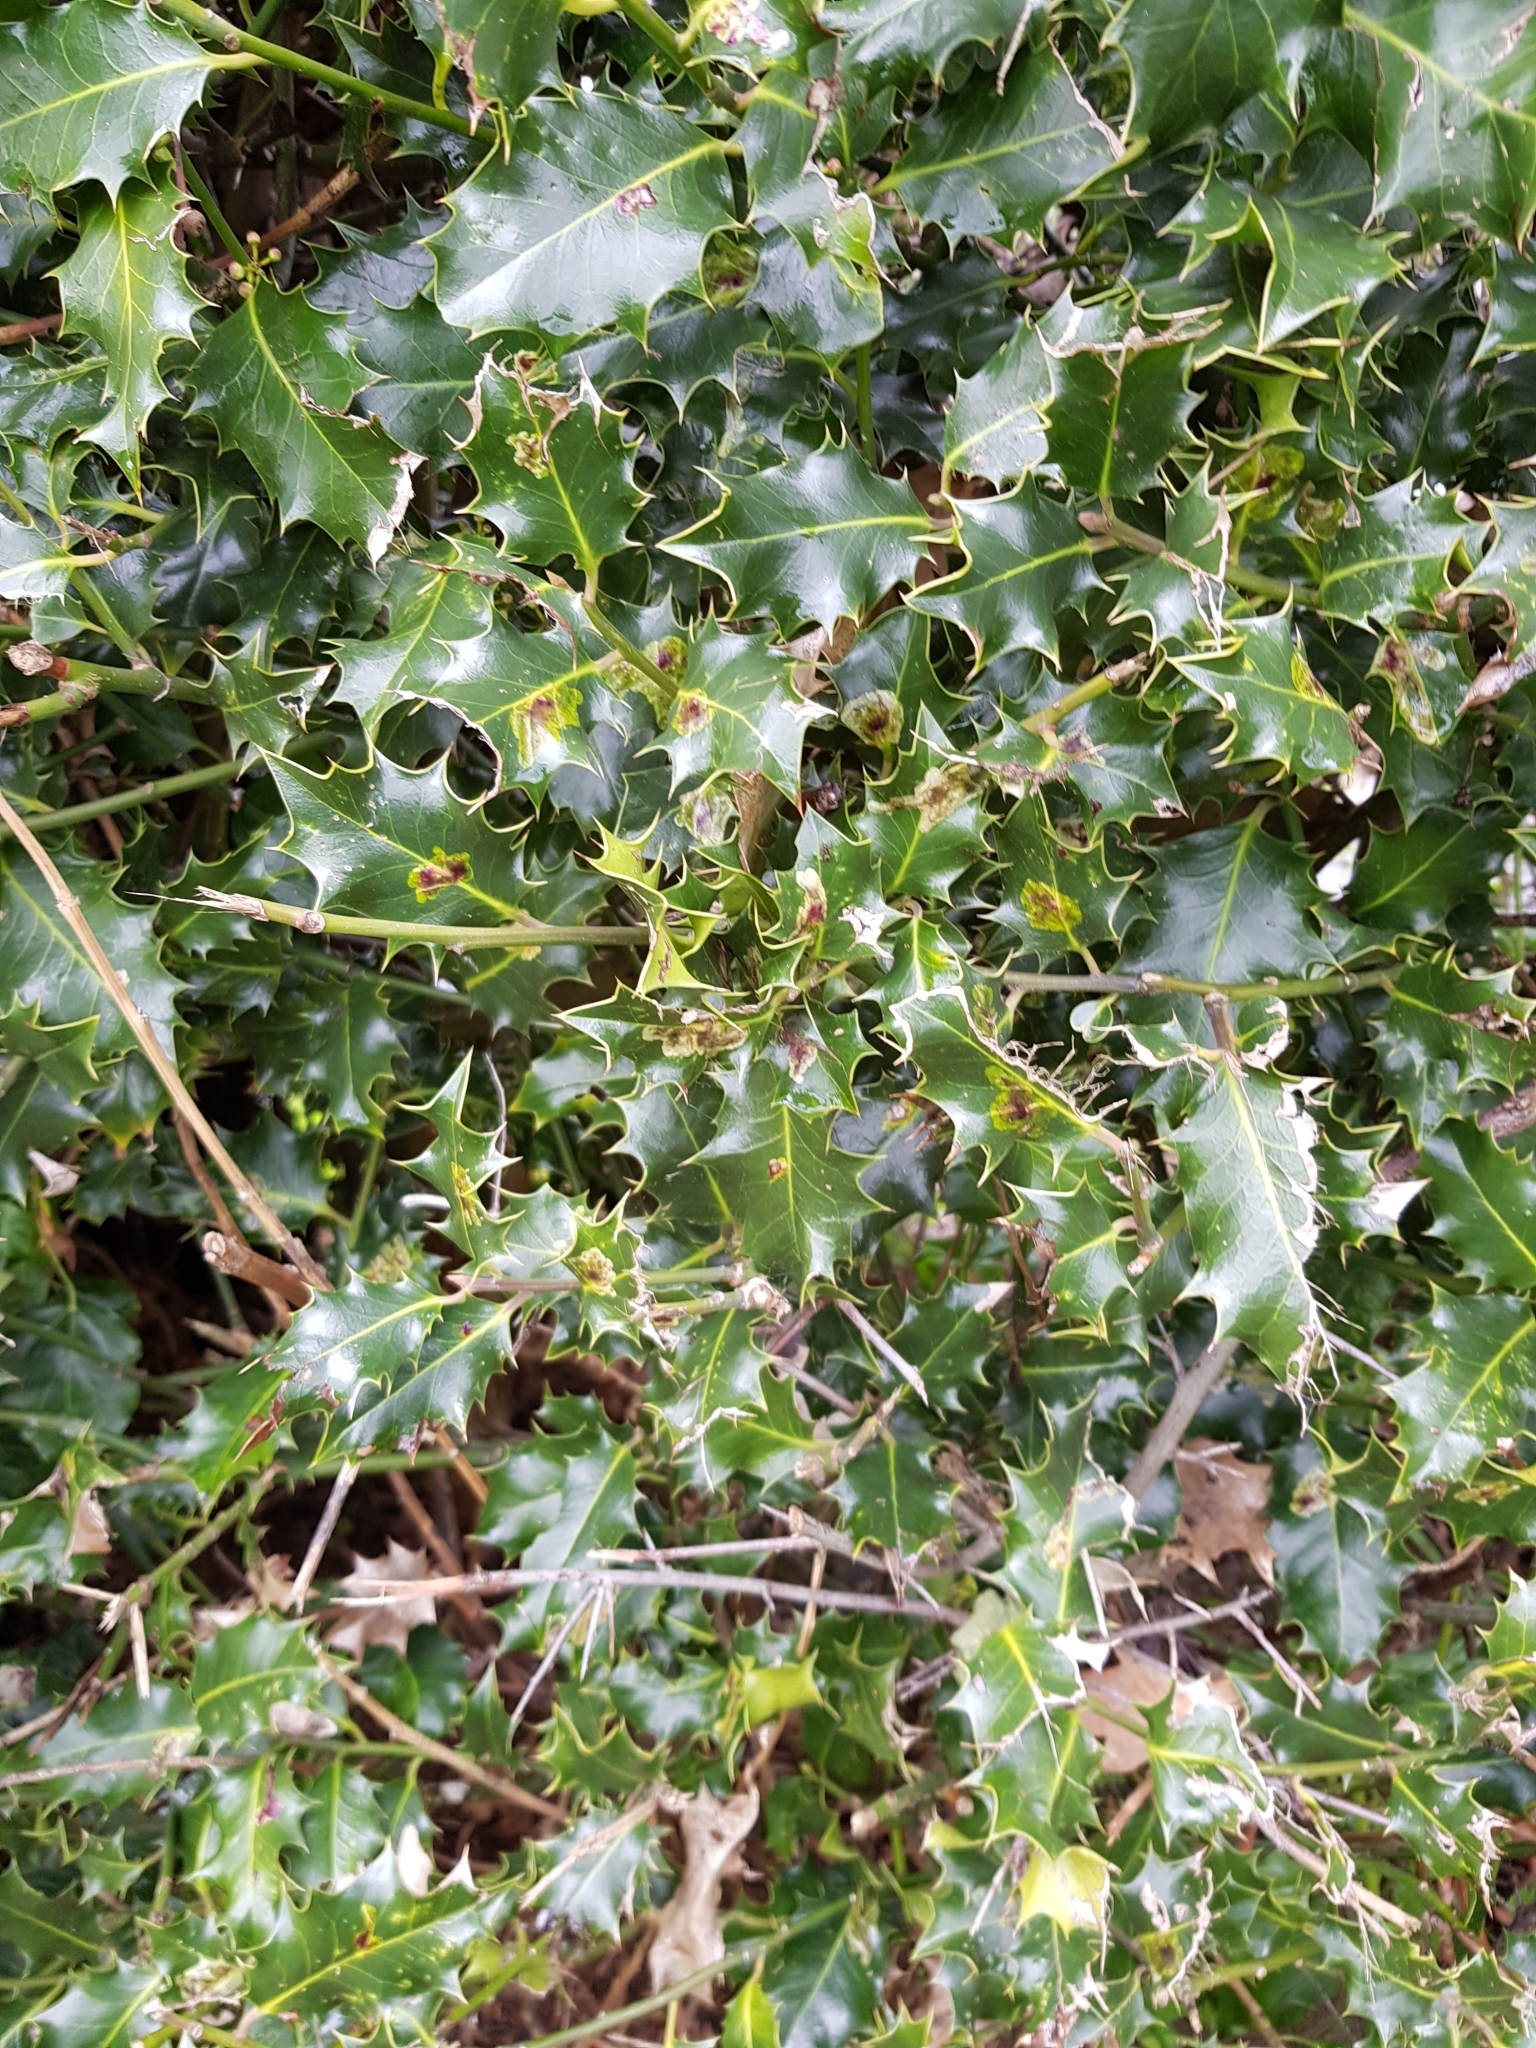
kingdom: Plantae
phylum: Tracheophyta
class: Magnoliopsida
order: Aquifoliales
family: Aquifoliaceae
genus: Ilex
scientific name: Ilex aquifolium
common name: English holly
